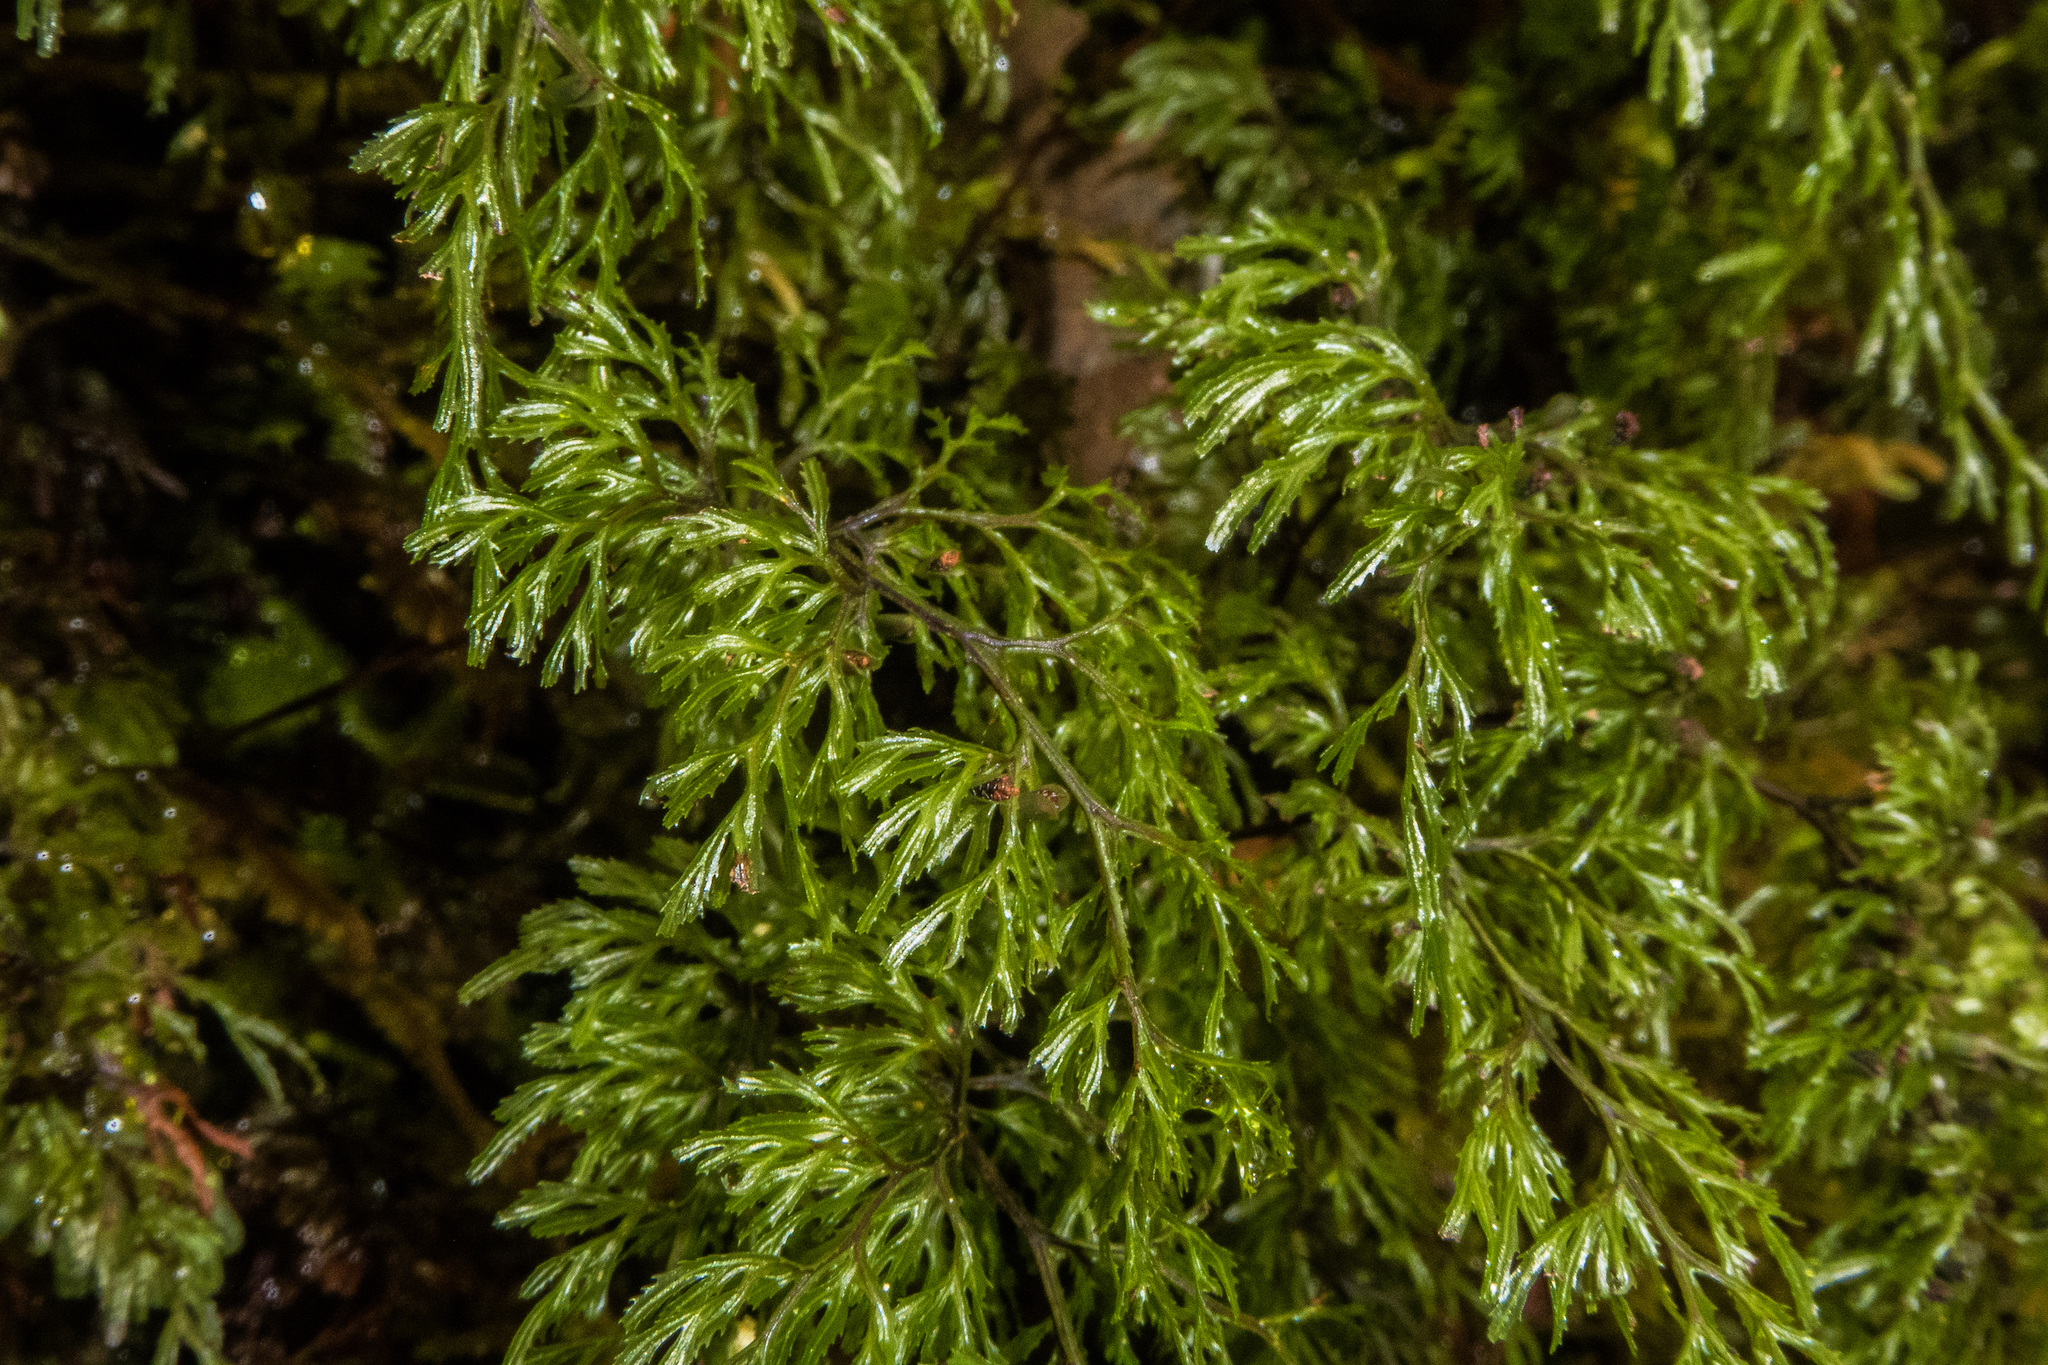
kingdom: Plantae
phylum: Tracheophyta
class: Polypodiopsida
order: Hymenophyllales
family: Hymenophyllaceae
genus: Hymenophyllum
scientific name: Hymenophyllum multifidum
